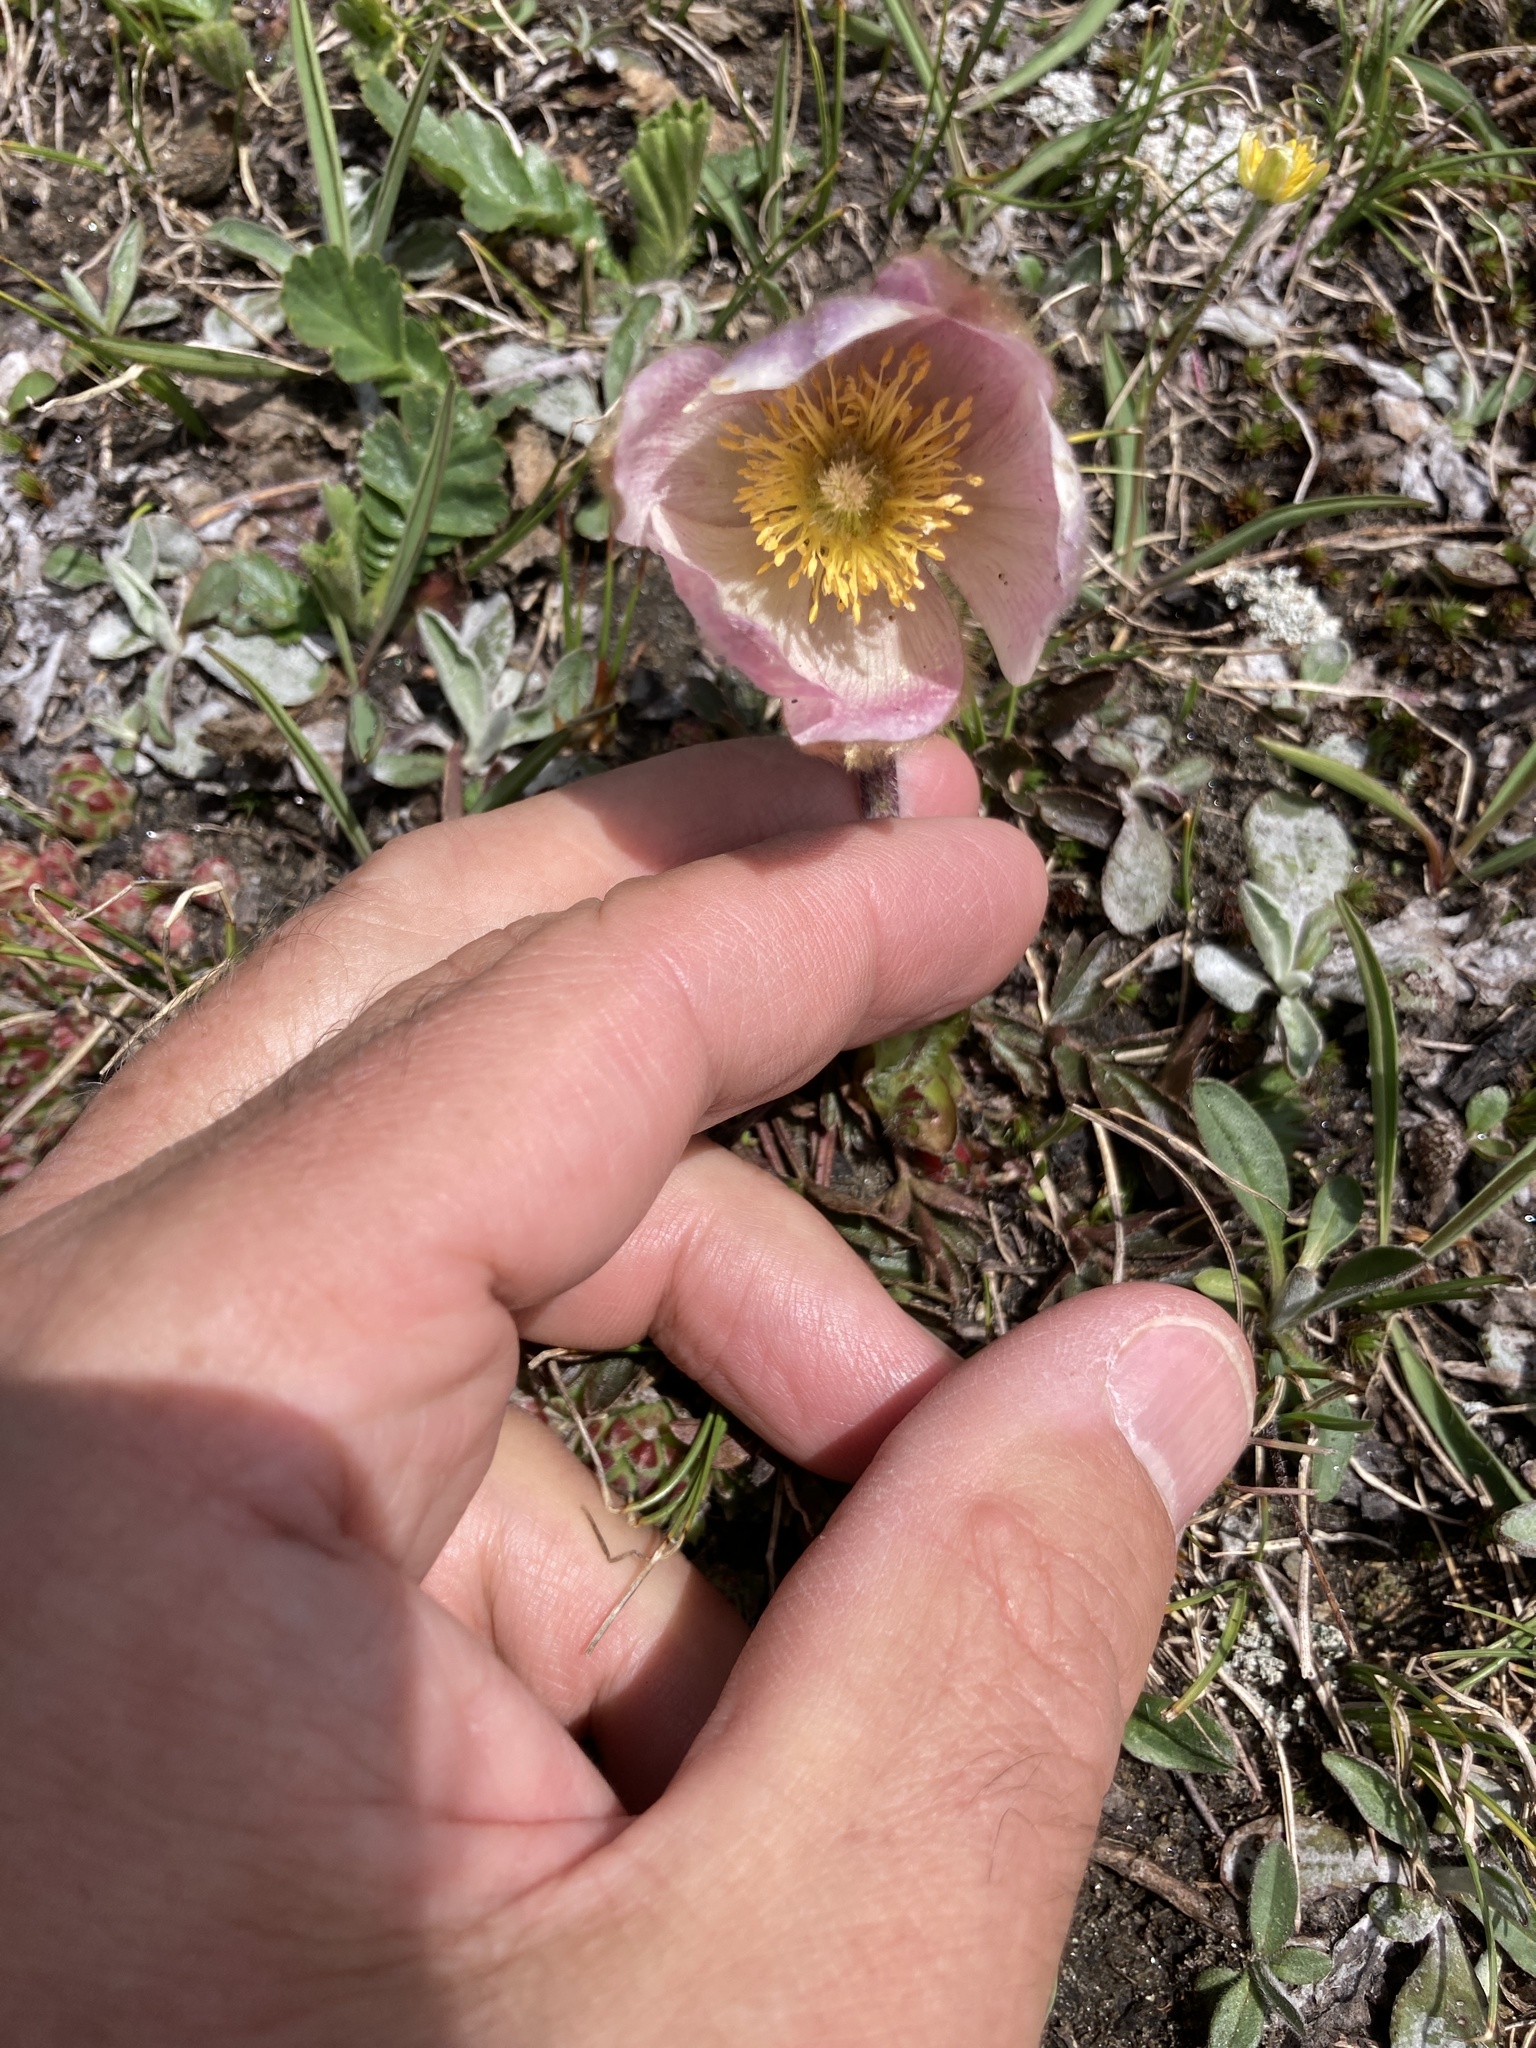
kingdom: Plantae
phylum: Tracheophyta
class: Magnoliopsida
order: Ranunculales
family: Ranunculaceae
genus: Pulsatilla
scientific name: Pulsatilla vernalis
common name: Spring pasque flower
